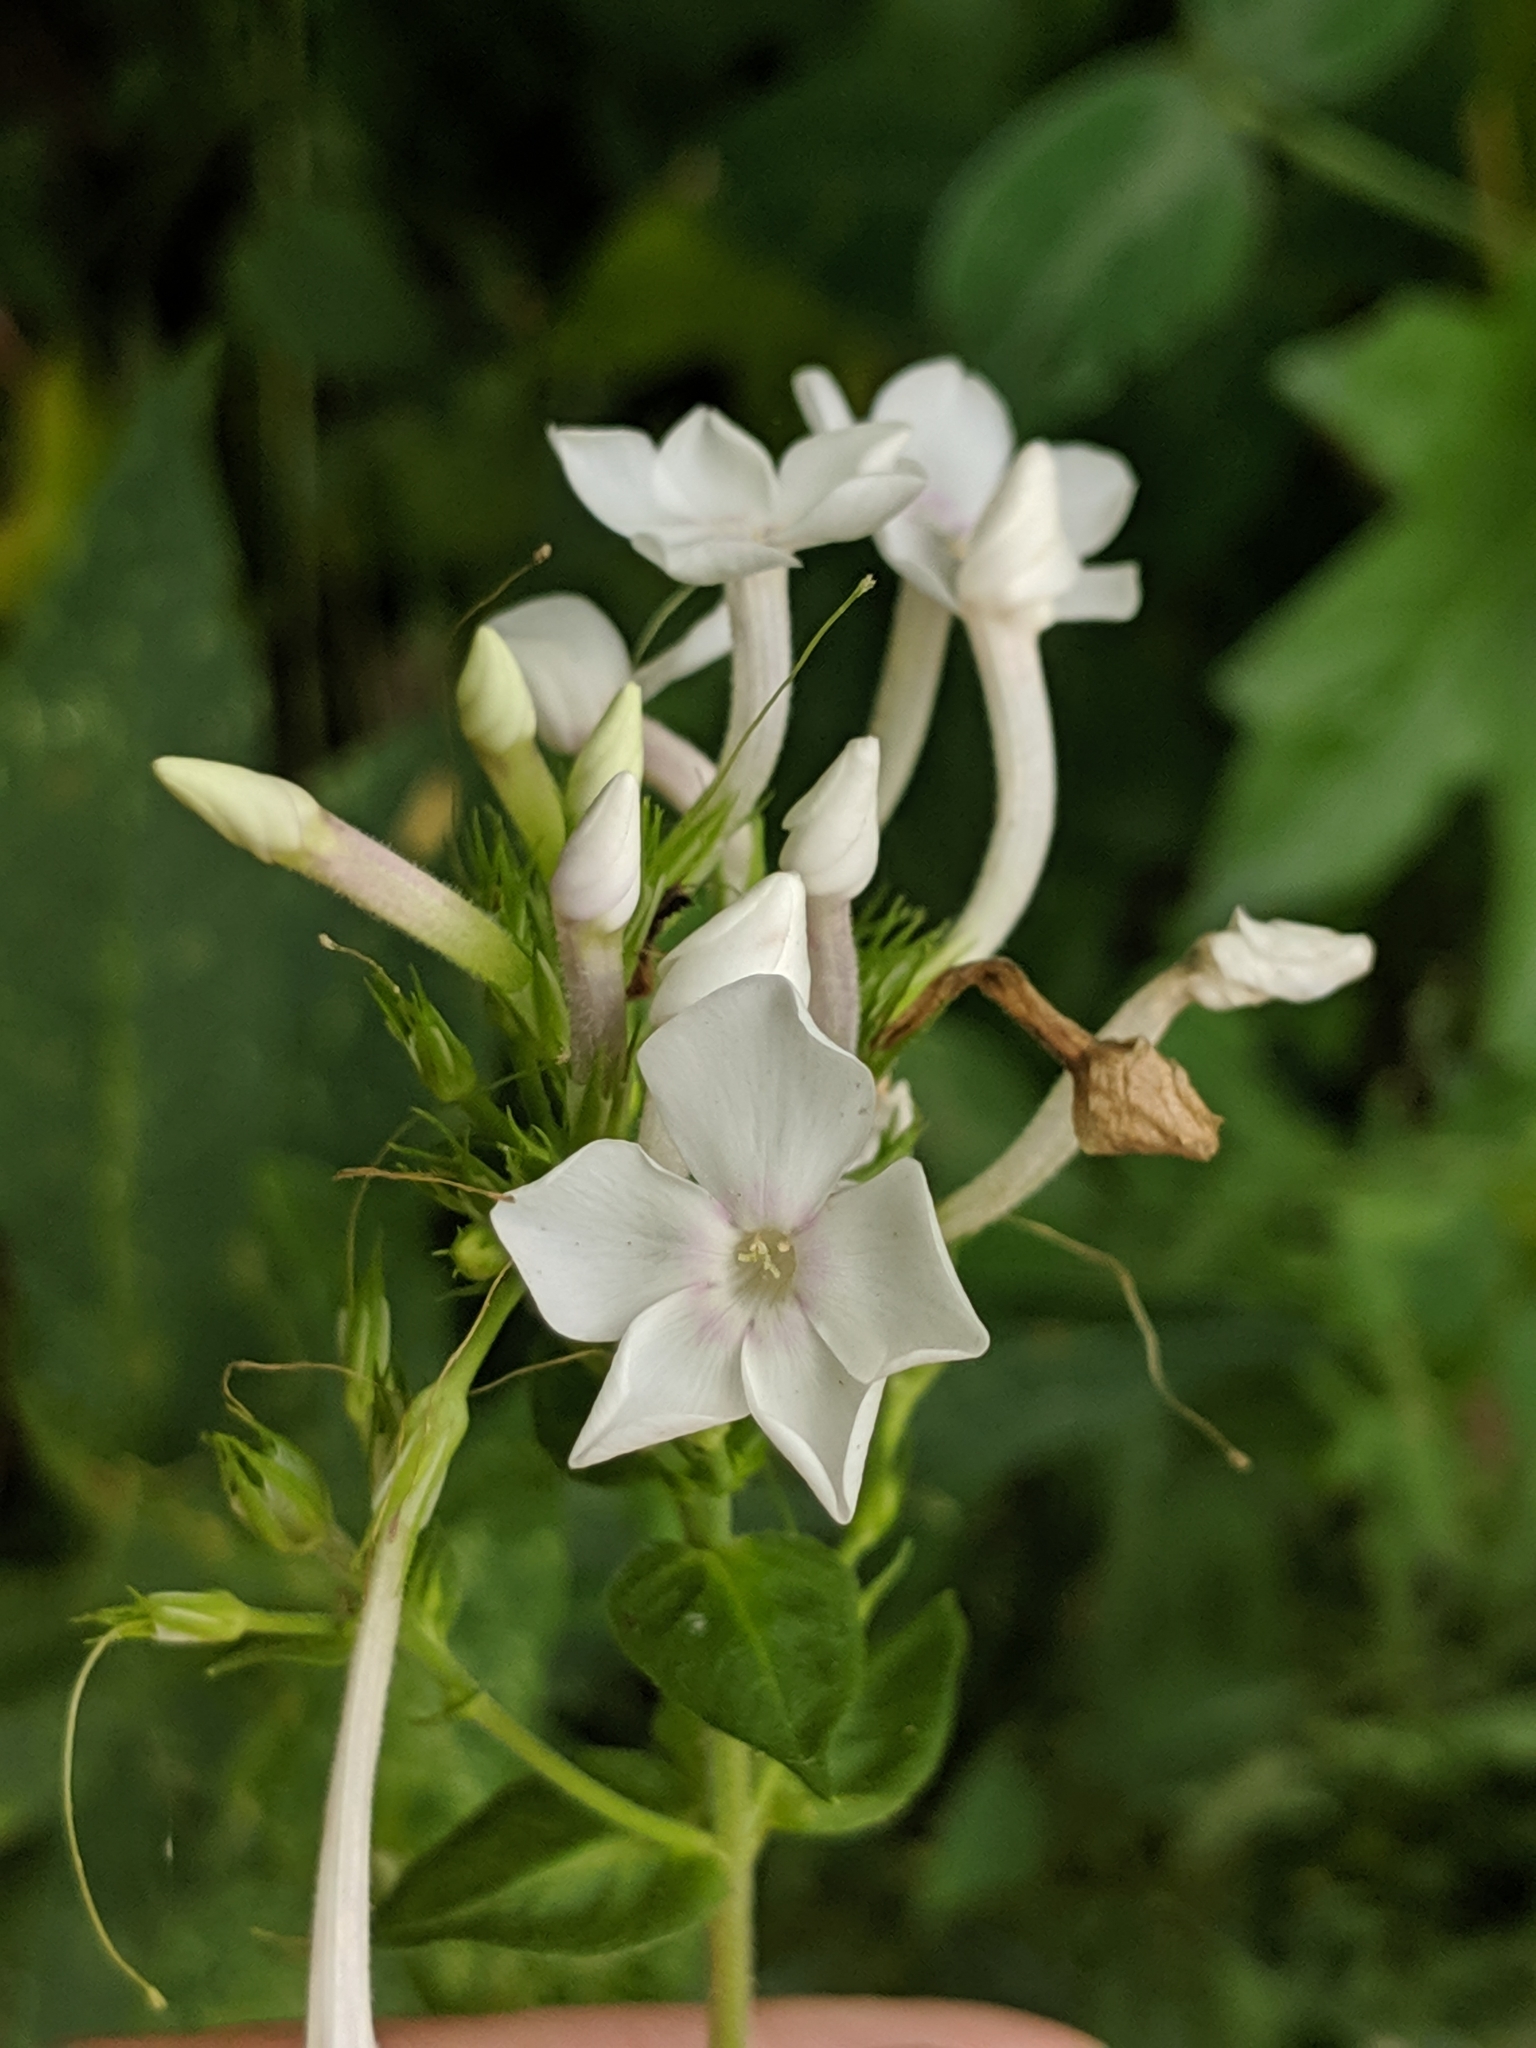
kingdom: Plantae
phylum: Tracheophyta
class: Magnoliopsida
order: Ericales
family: Polemoniaceae
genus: Phlox
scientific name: Phlox paniculata
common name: Fall phlox
